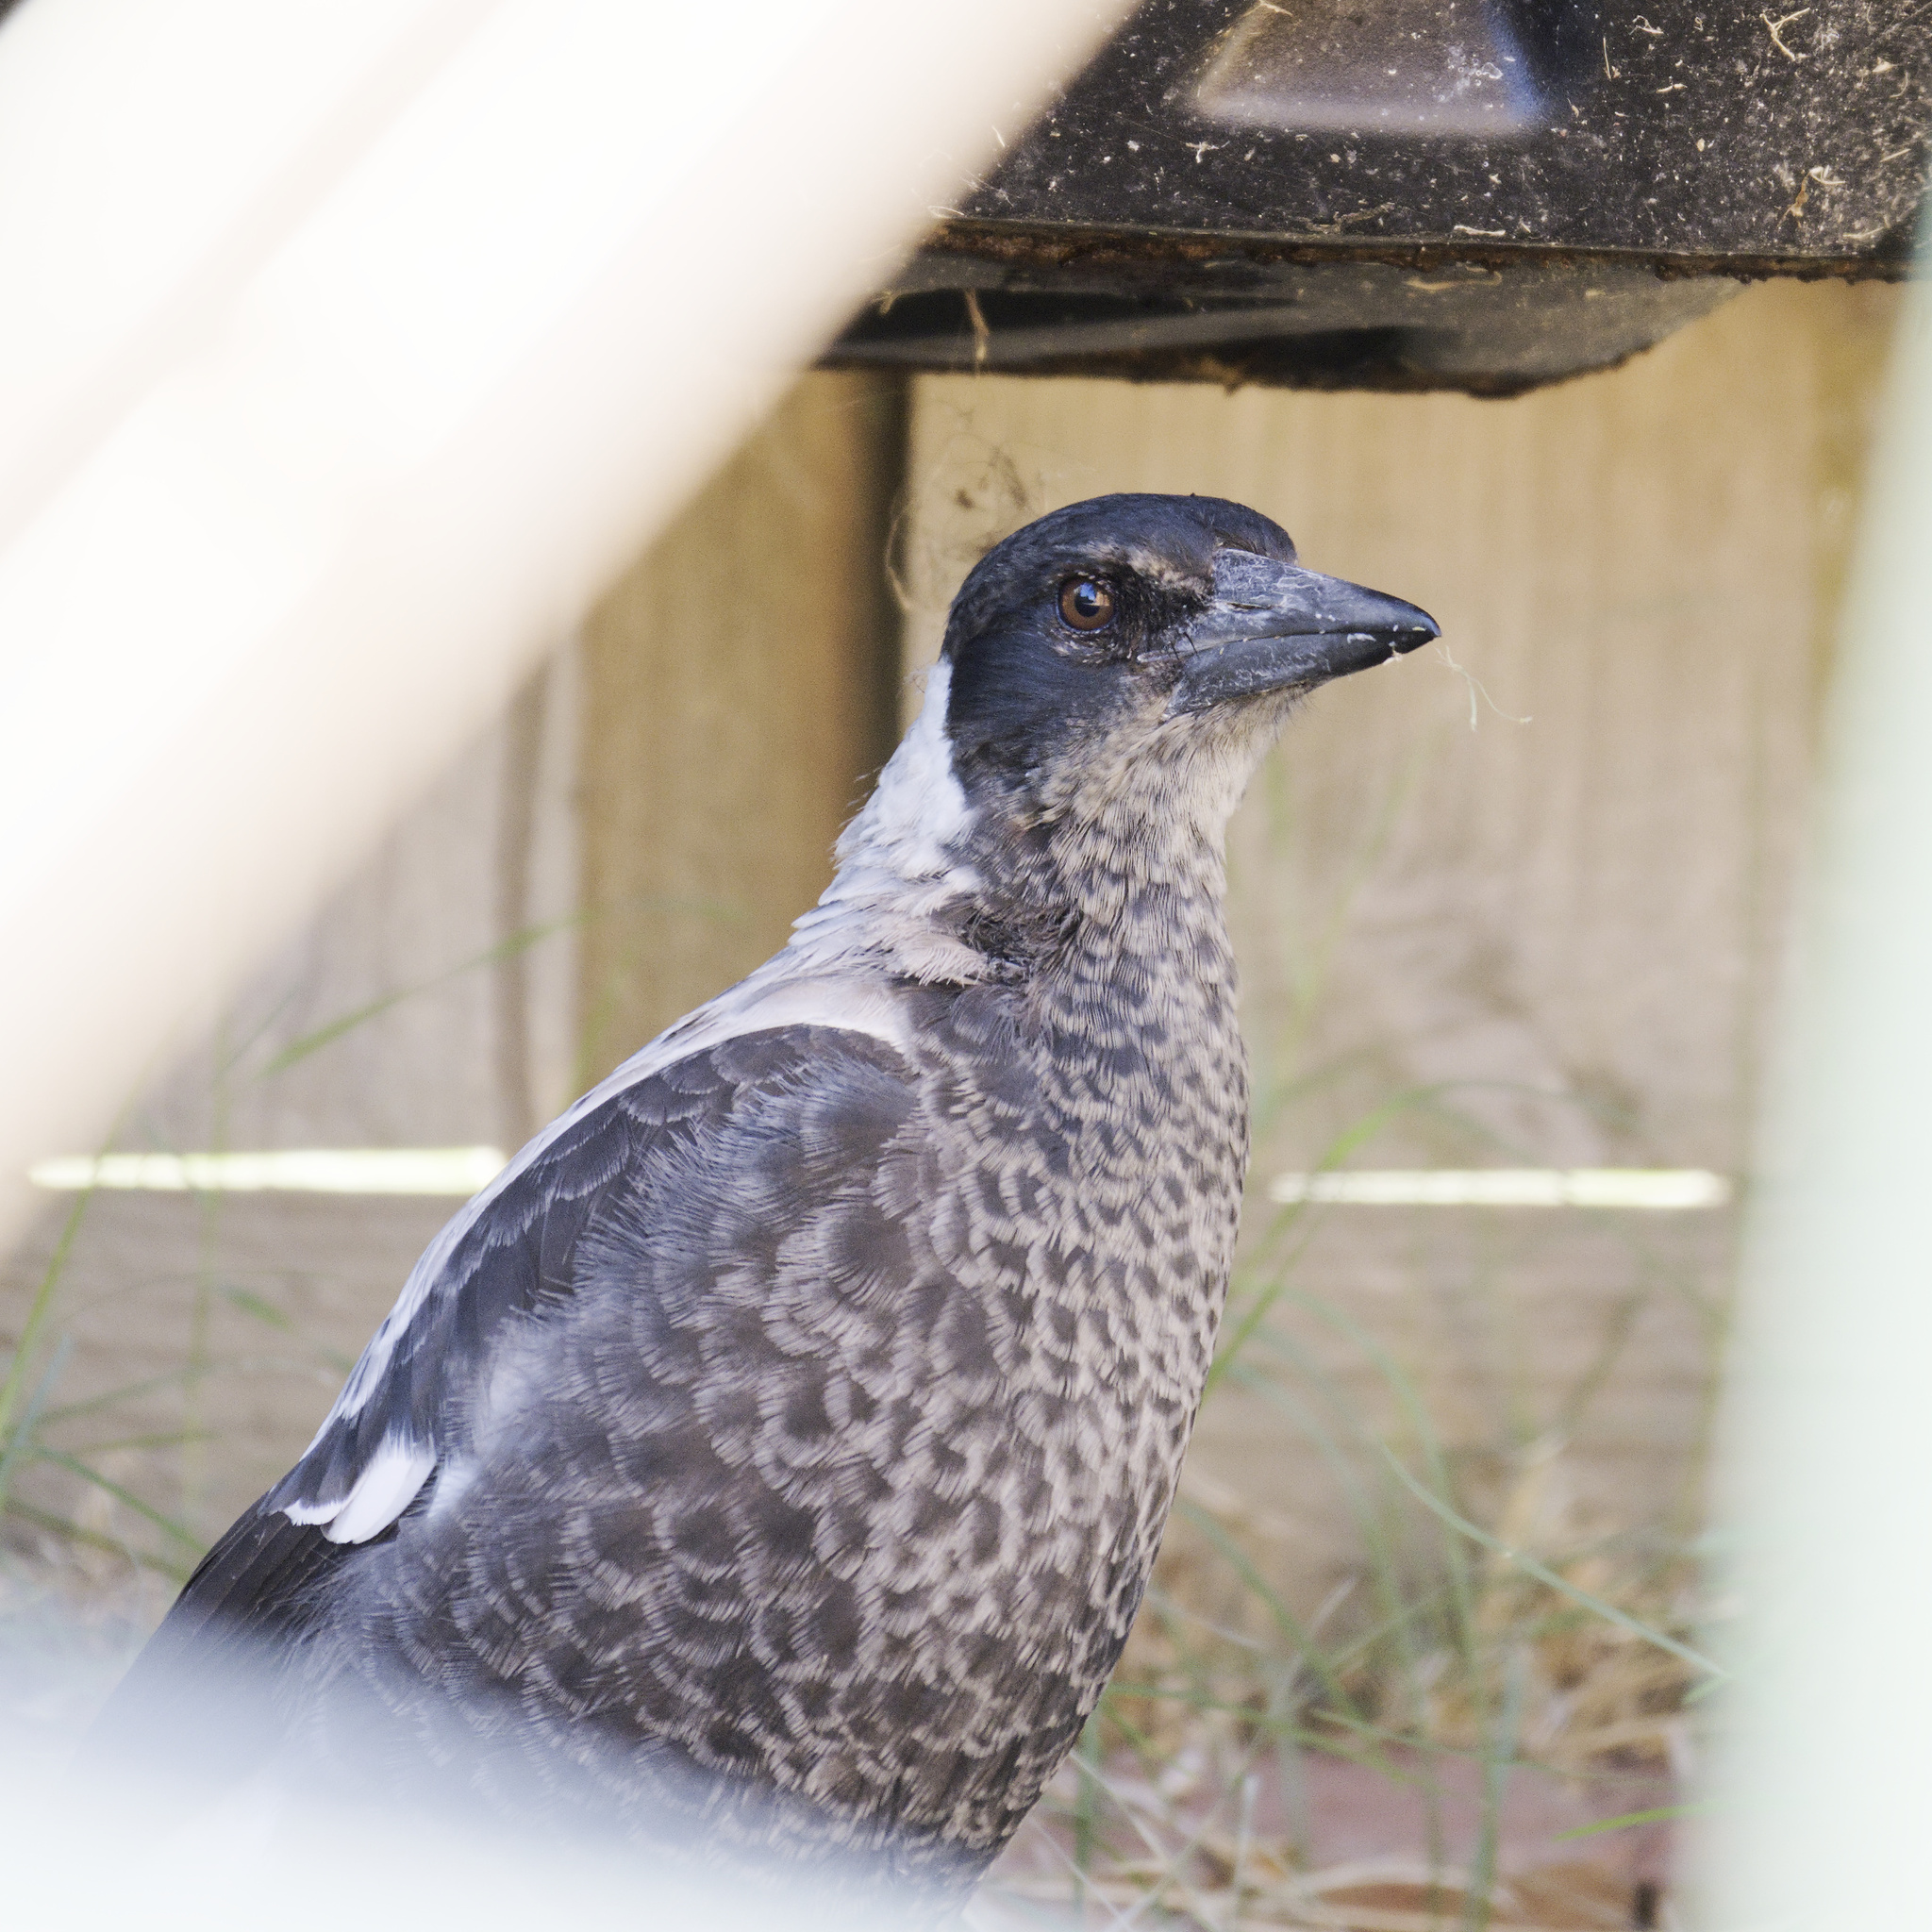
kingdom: Animalia
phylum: Chordata
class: Aves
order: Passeriformes
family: Cracticidae
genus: Gymnorhina
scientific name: Gymnorhina tibicen
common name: Australian magpie
